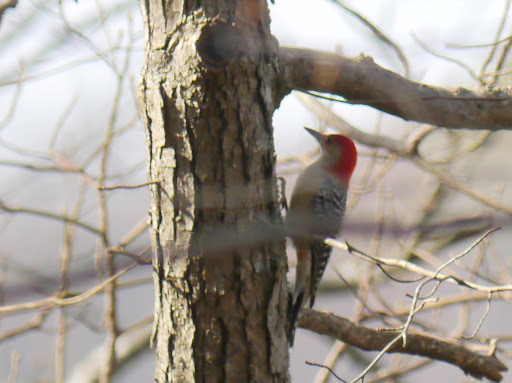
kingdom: Animalia
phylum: Chordata
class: Aves
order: Piciformes
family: Picidae
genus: Melanerpes
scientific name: Melanerpes carolinus
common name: Red-bellied woodpecker
